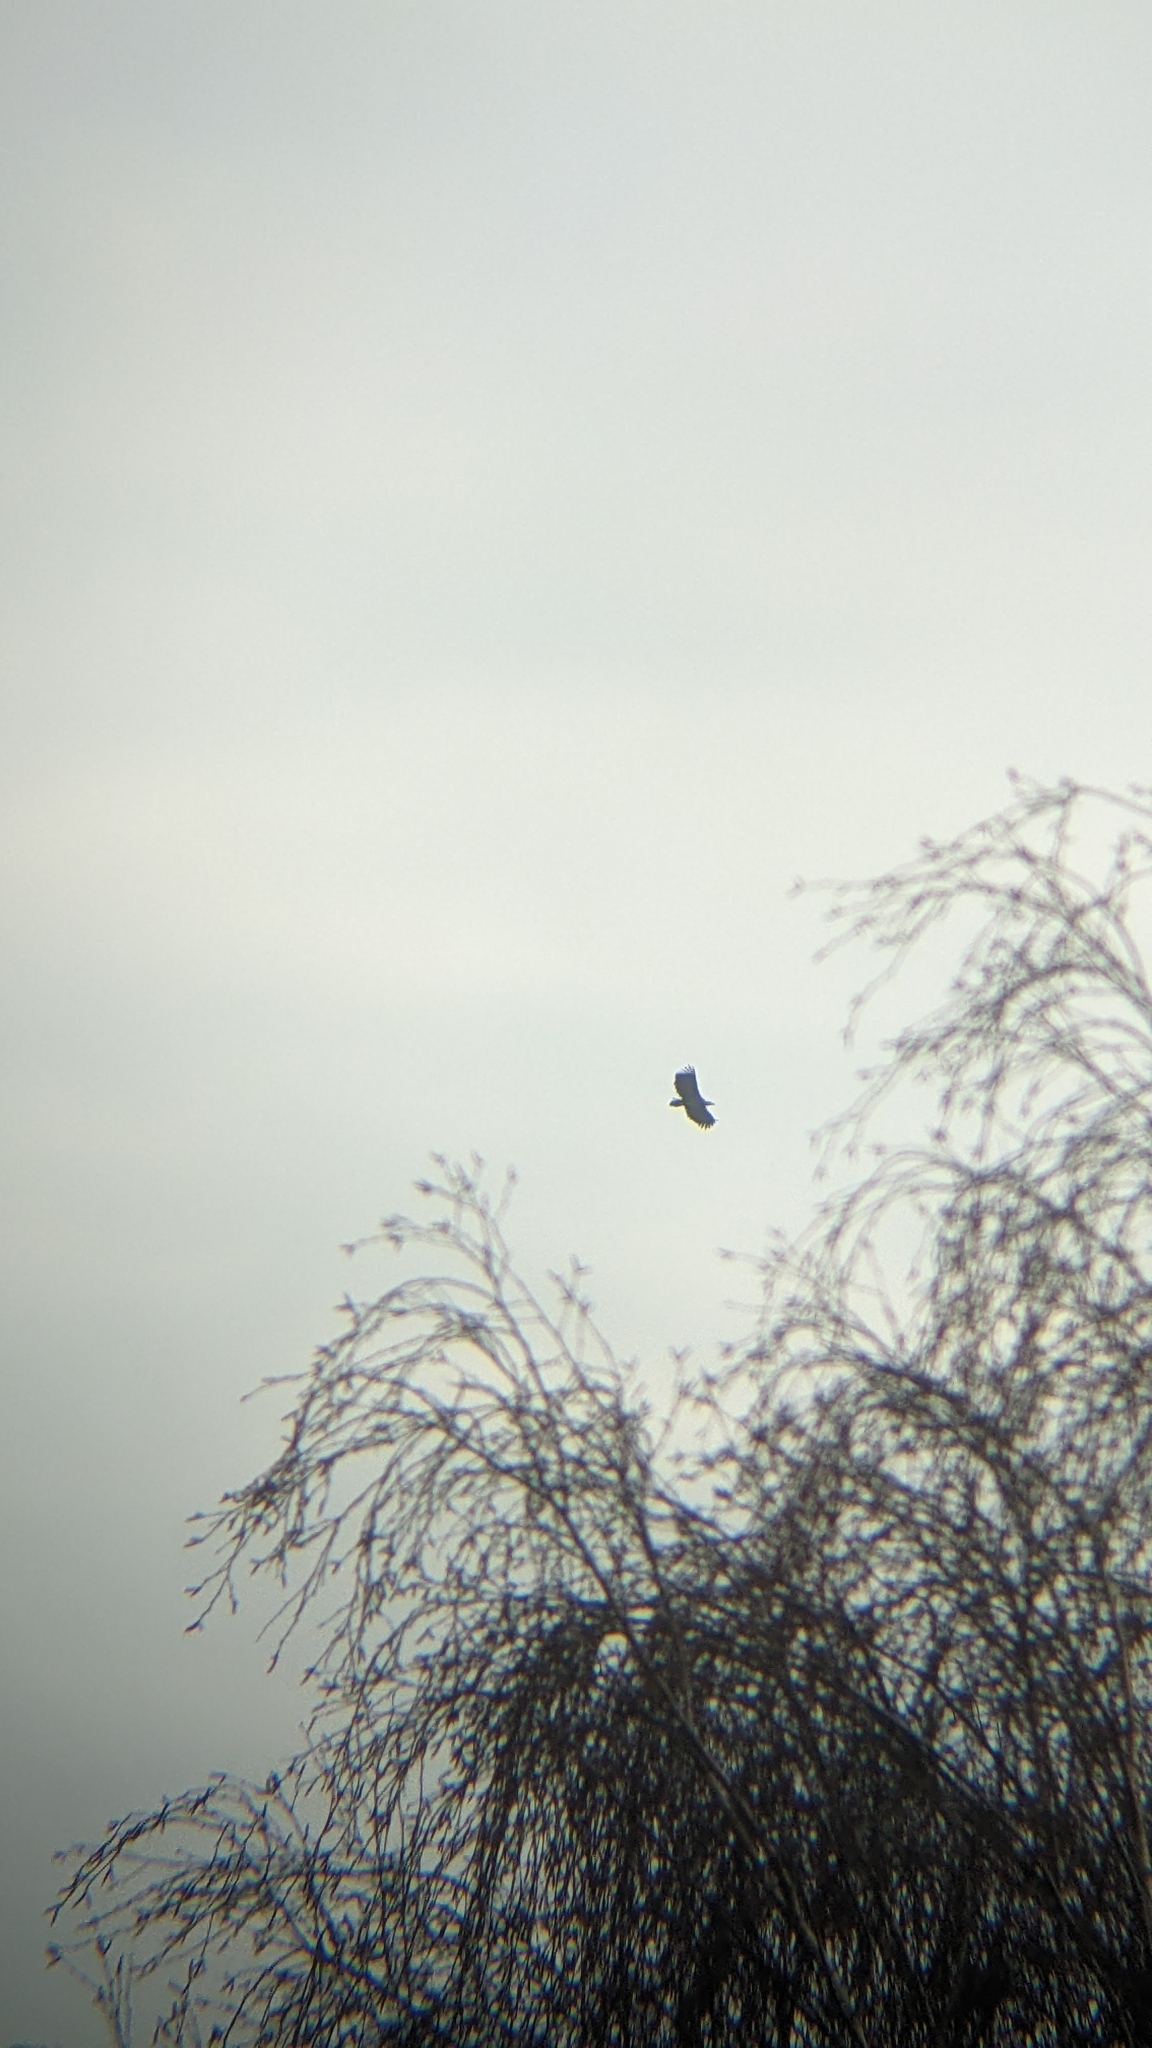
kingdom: Animalia
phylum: Chordata
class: Aves
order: Accipitriformes
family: Accipitridae
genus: Haliaeetus
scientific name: Haliaeetus albicilla
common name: White-tailed eagle
